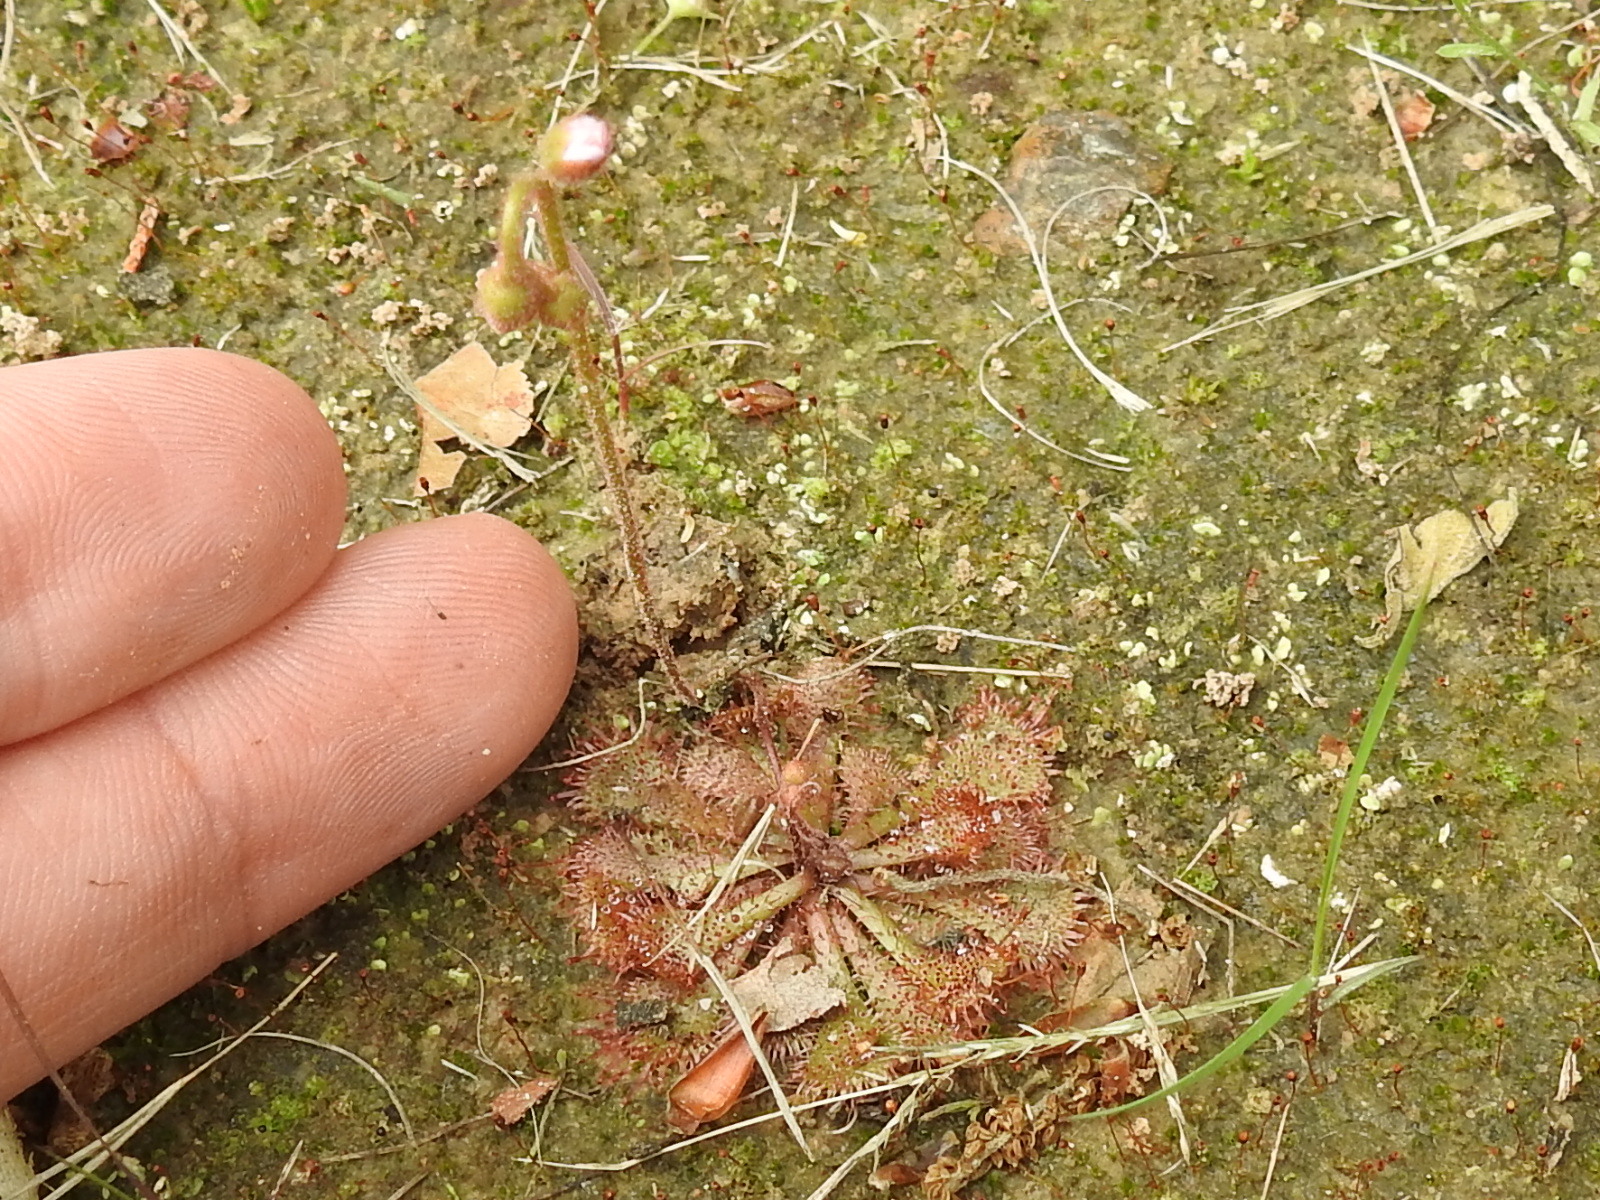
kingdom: Plantae
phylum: Tracheophyta
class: Magnoliopsida
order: Caryophyllales
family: Droseraceae
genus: Drosera
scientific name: Drosera brevifolia
